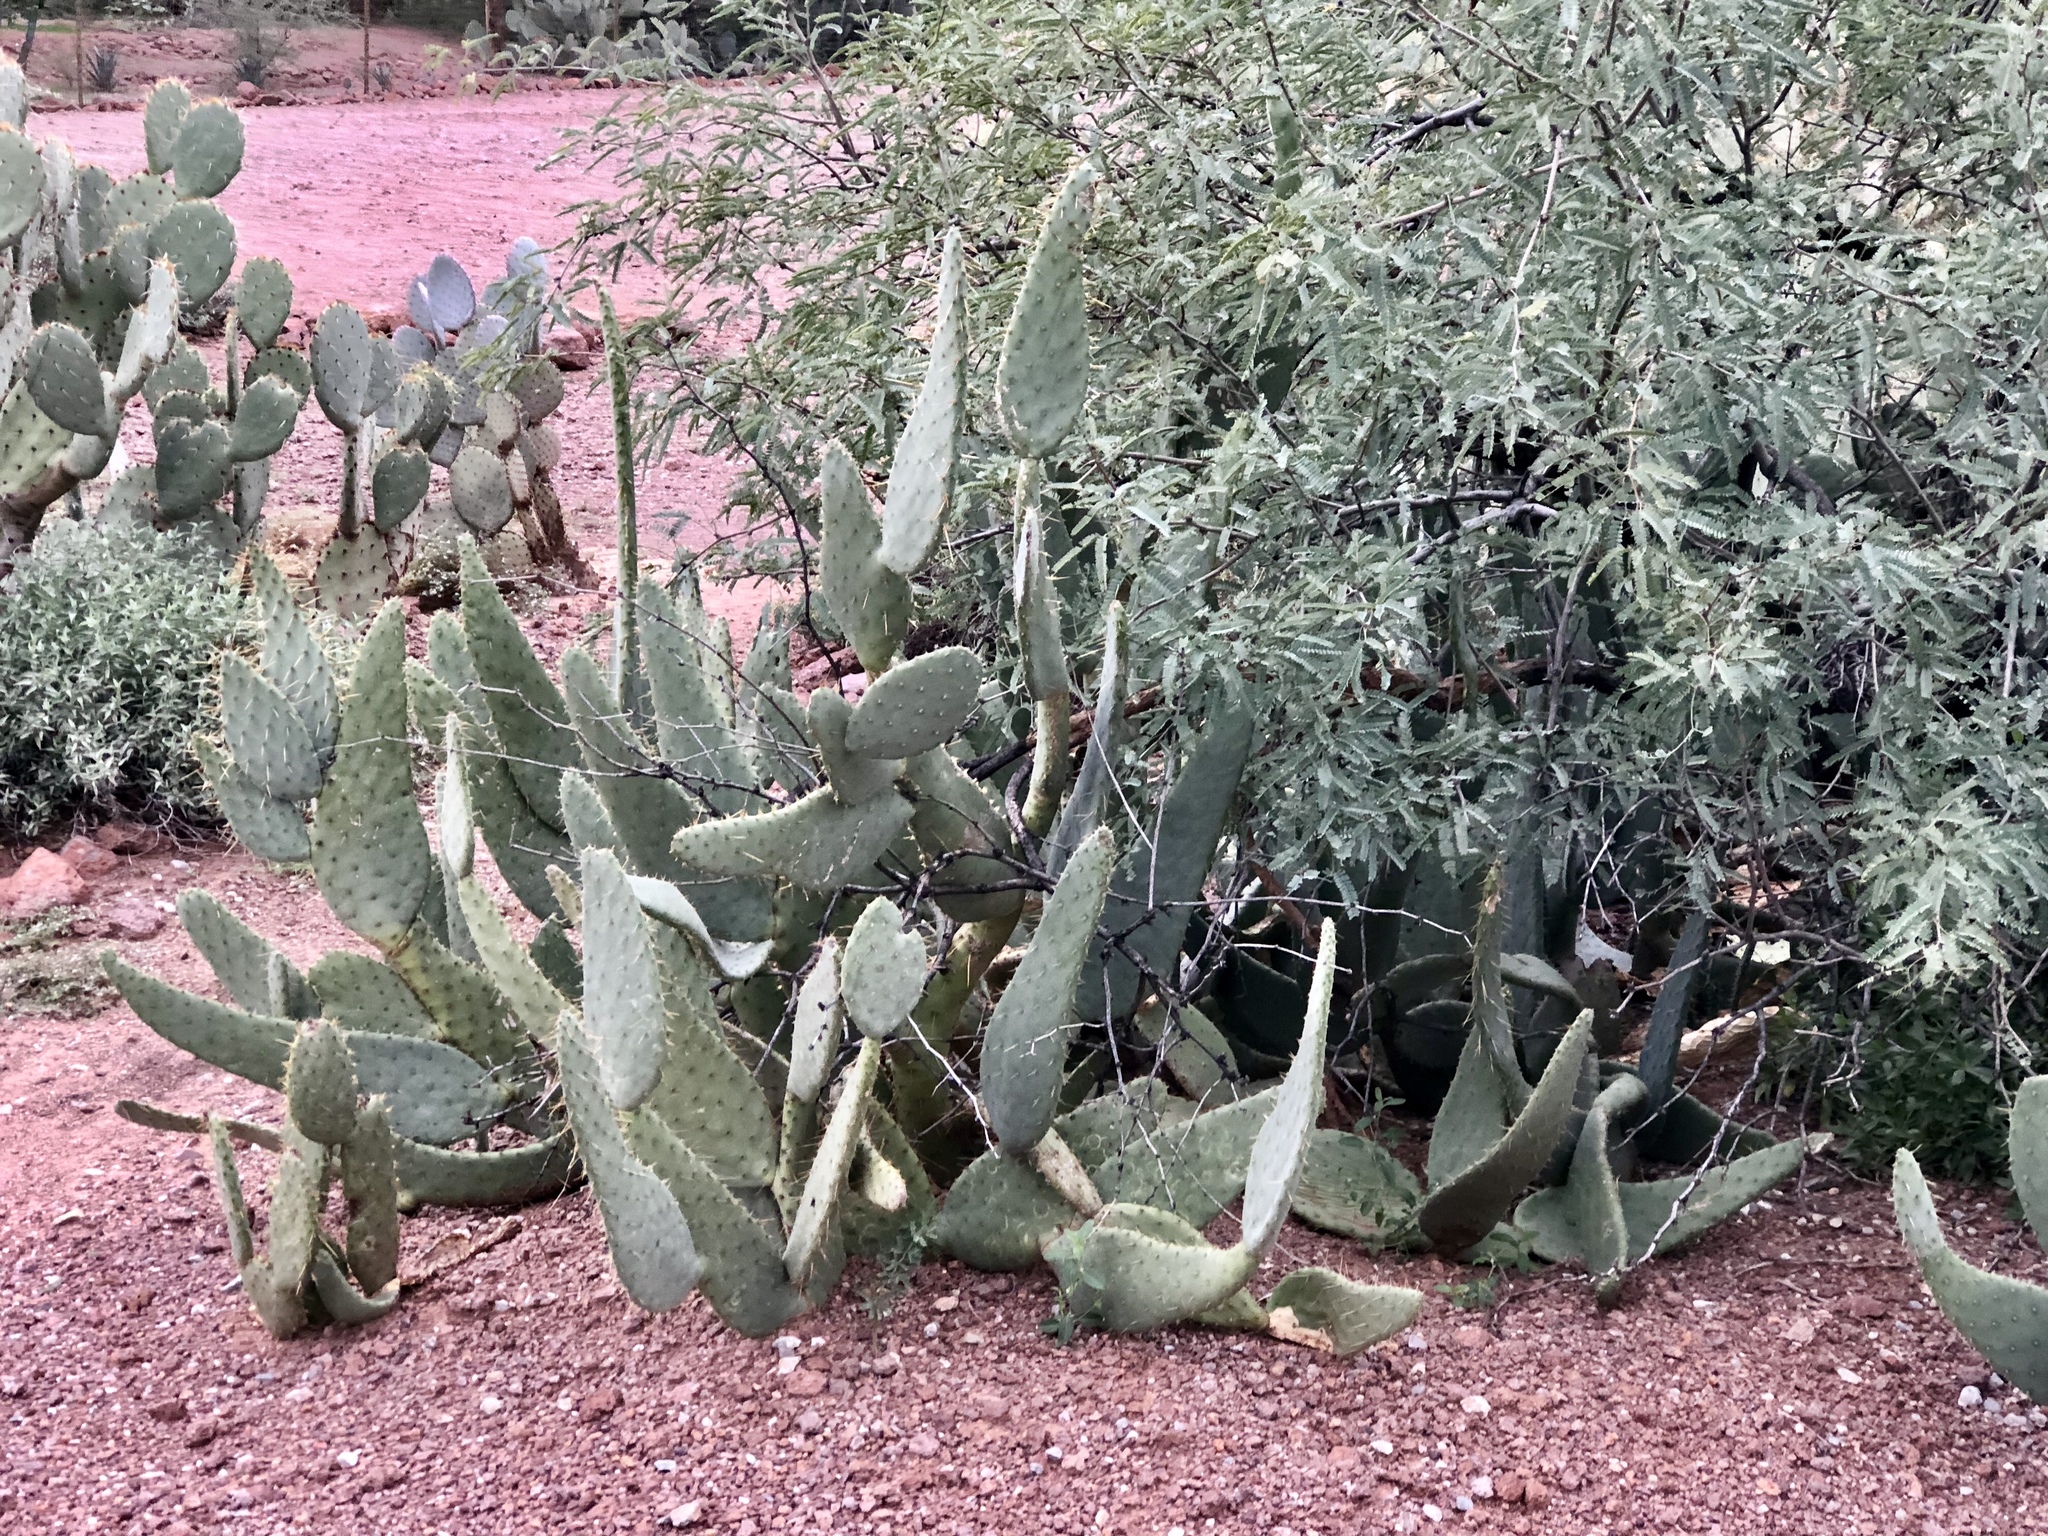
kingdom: Plantae
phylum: Tracheophyta
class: Magnoliopsida
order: Caryophyllales
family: Cactaceae
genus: Opuntia
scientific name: Opuntia engelmannii
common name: Cactus-apple
